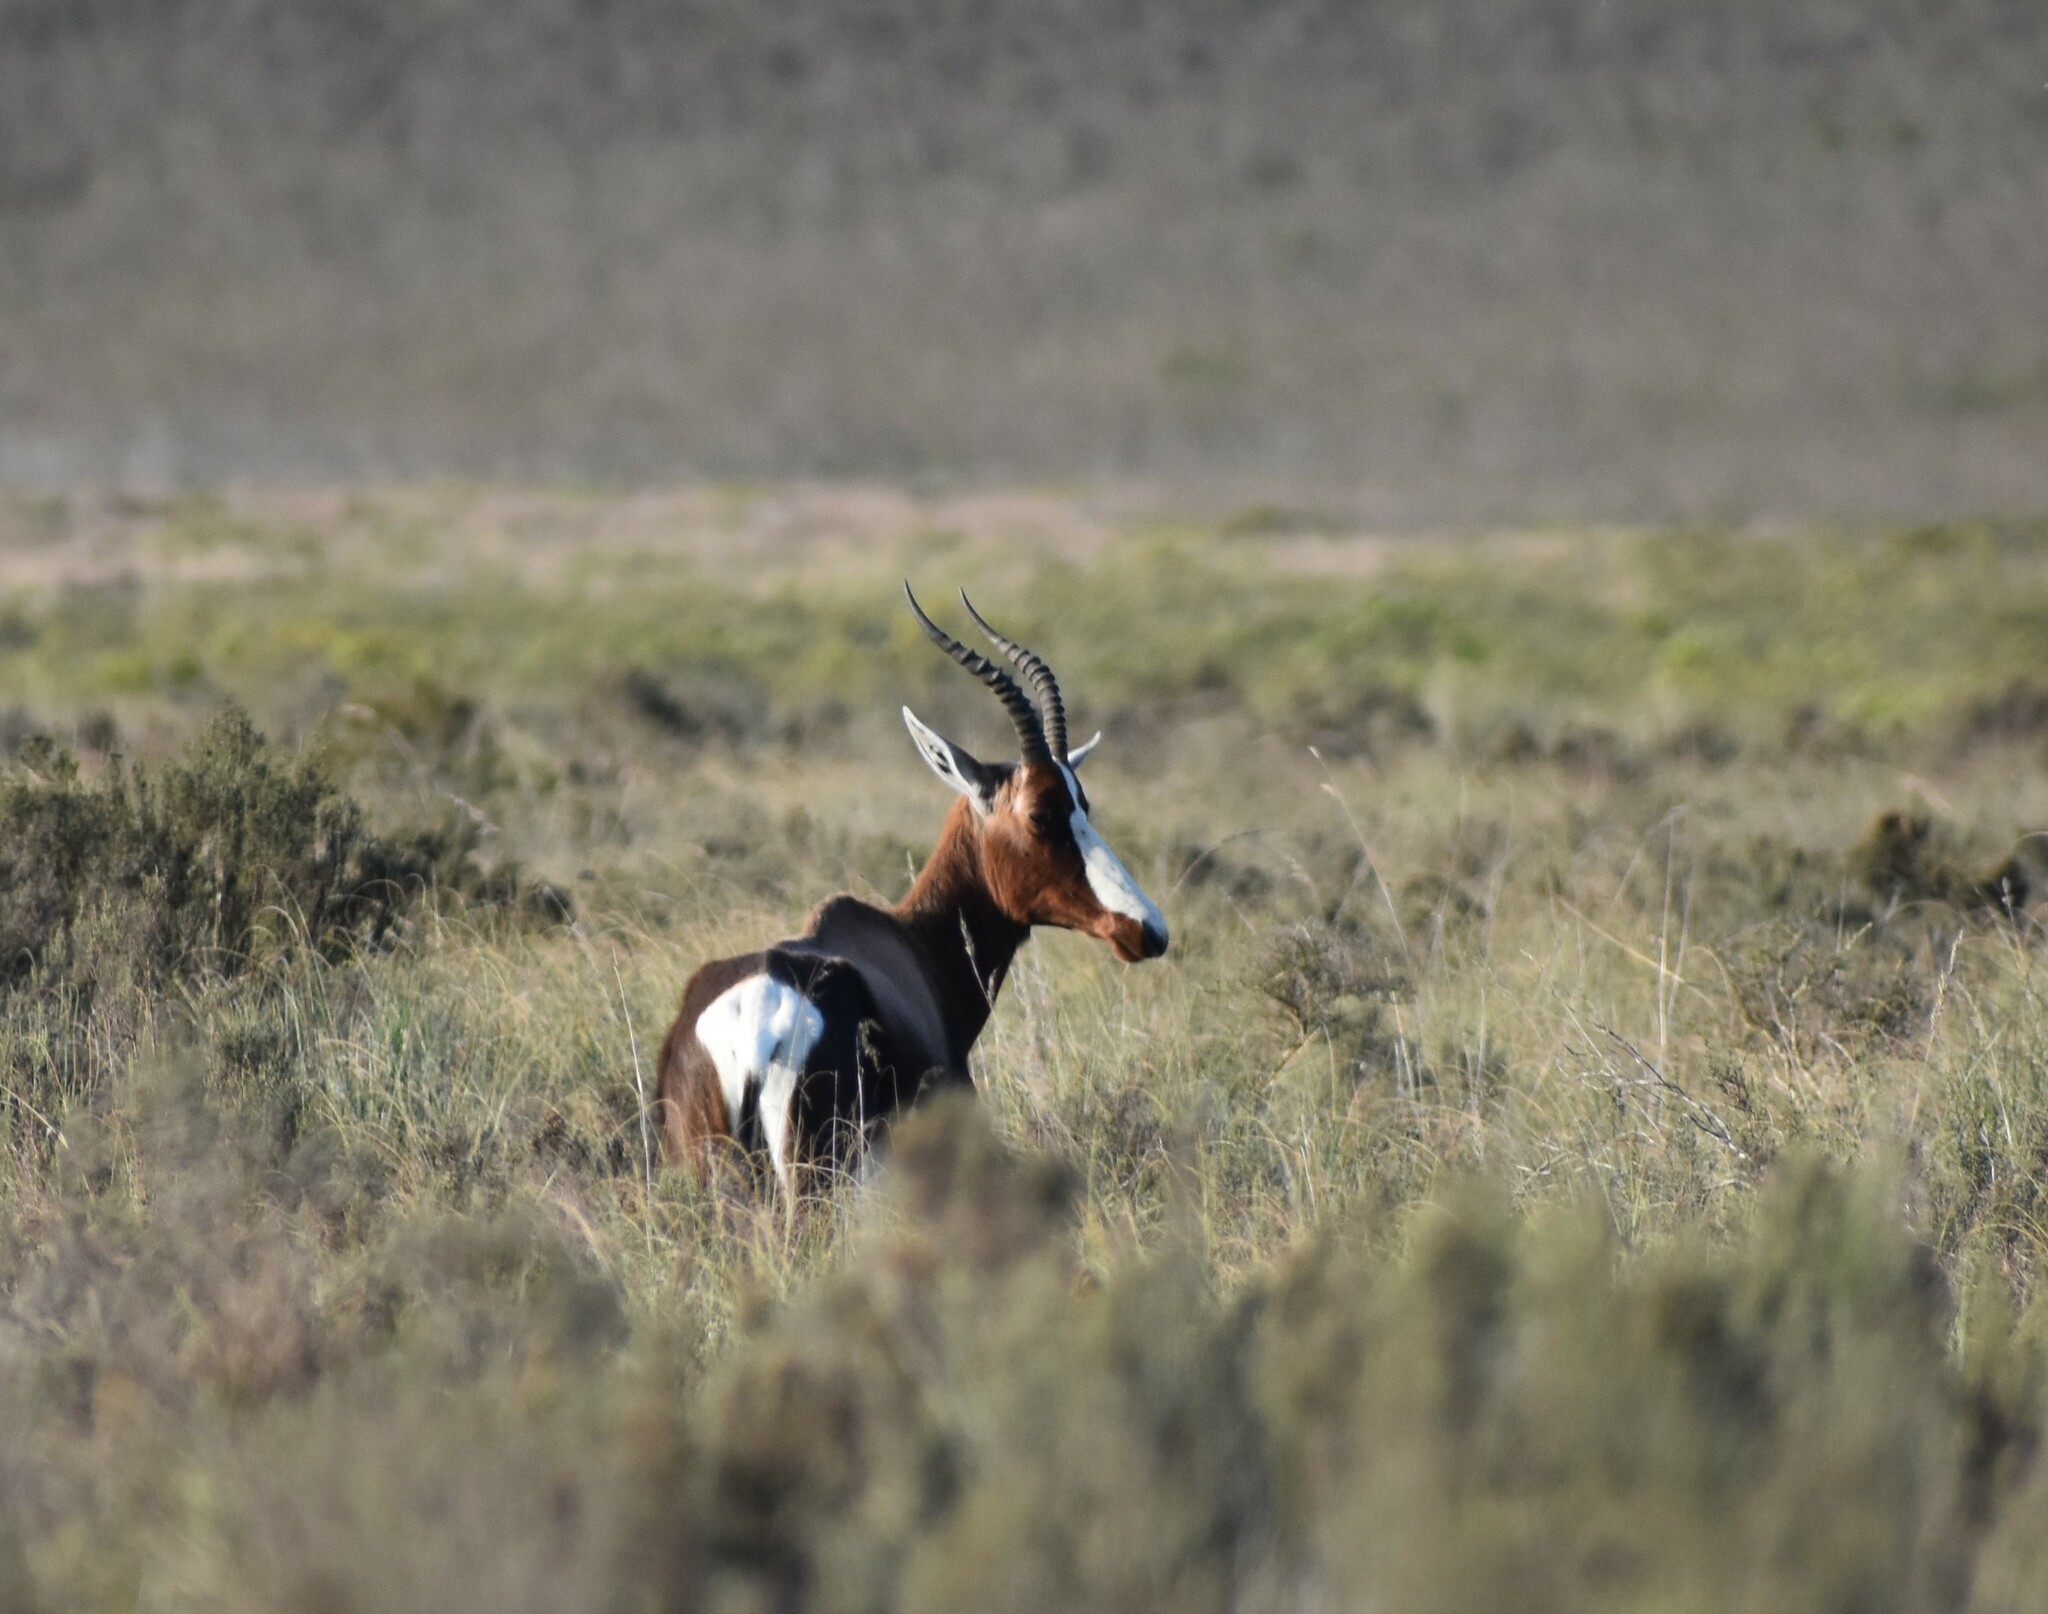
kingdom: Animalia
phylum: Chordata
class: Mammalia
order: Artiodactyla
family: Bovidae
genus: Damaliscus
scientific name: Damaliscus pygargus
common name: Bontebok
